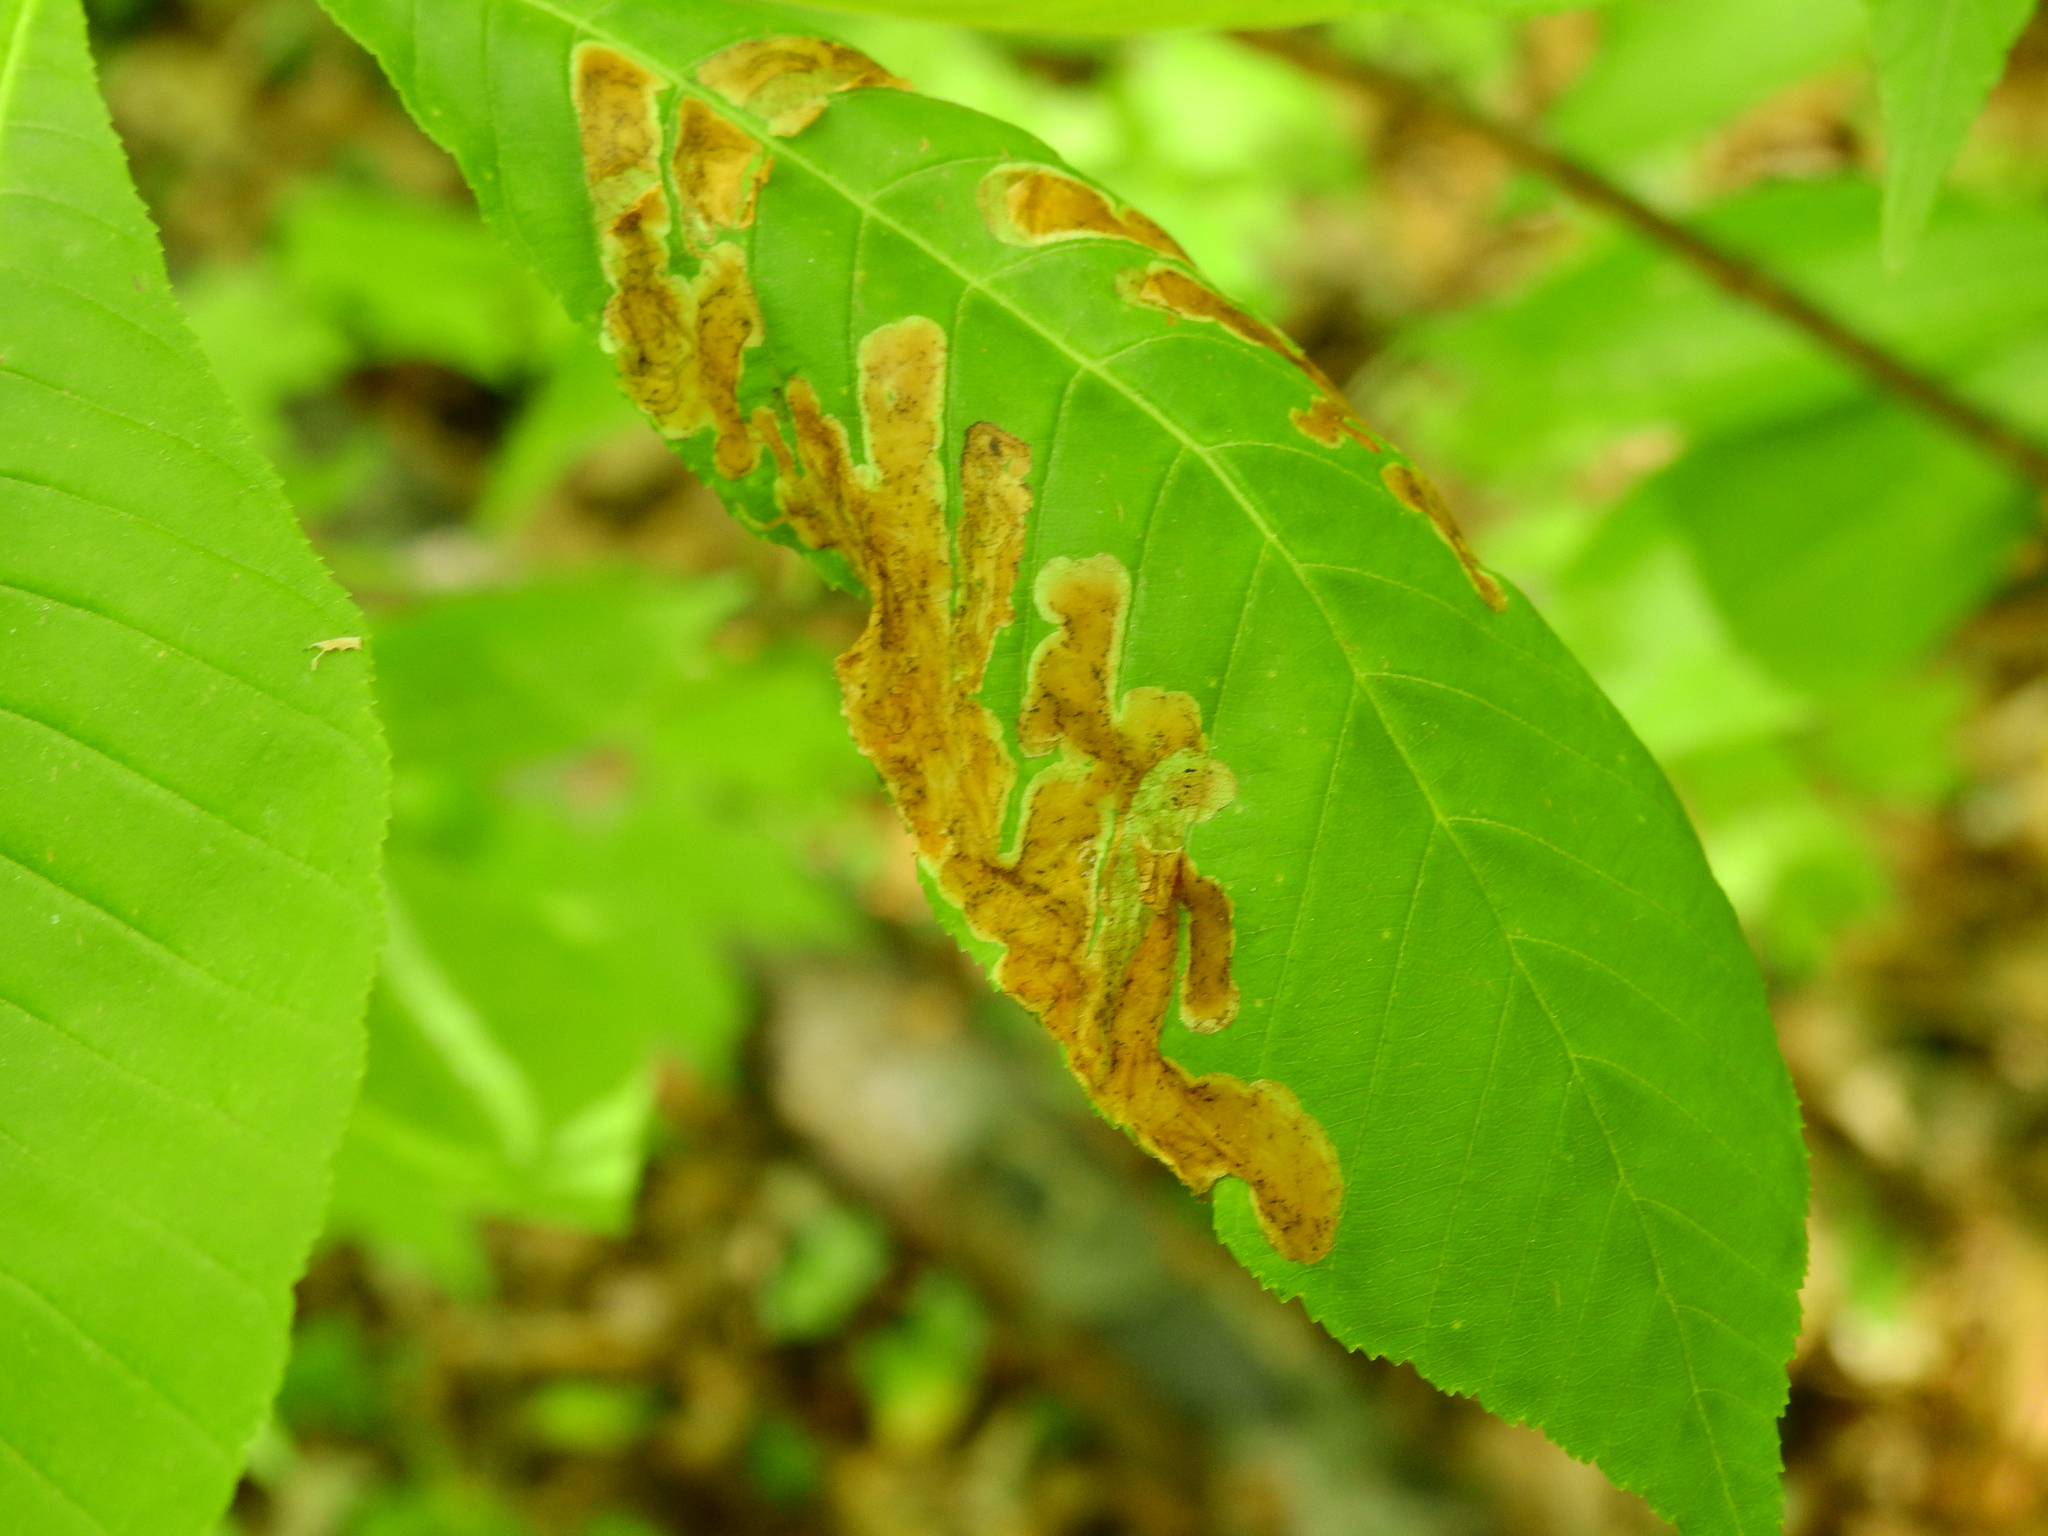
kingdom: Animalia
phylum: Arthropoda
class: Insecta
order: Diptera
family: Agromyzidae
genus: Phytomyza
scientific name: Phytomyza aesculi
